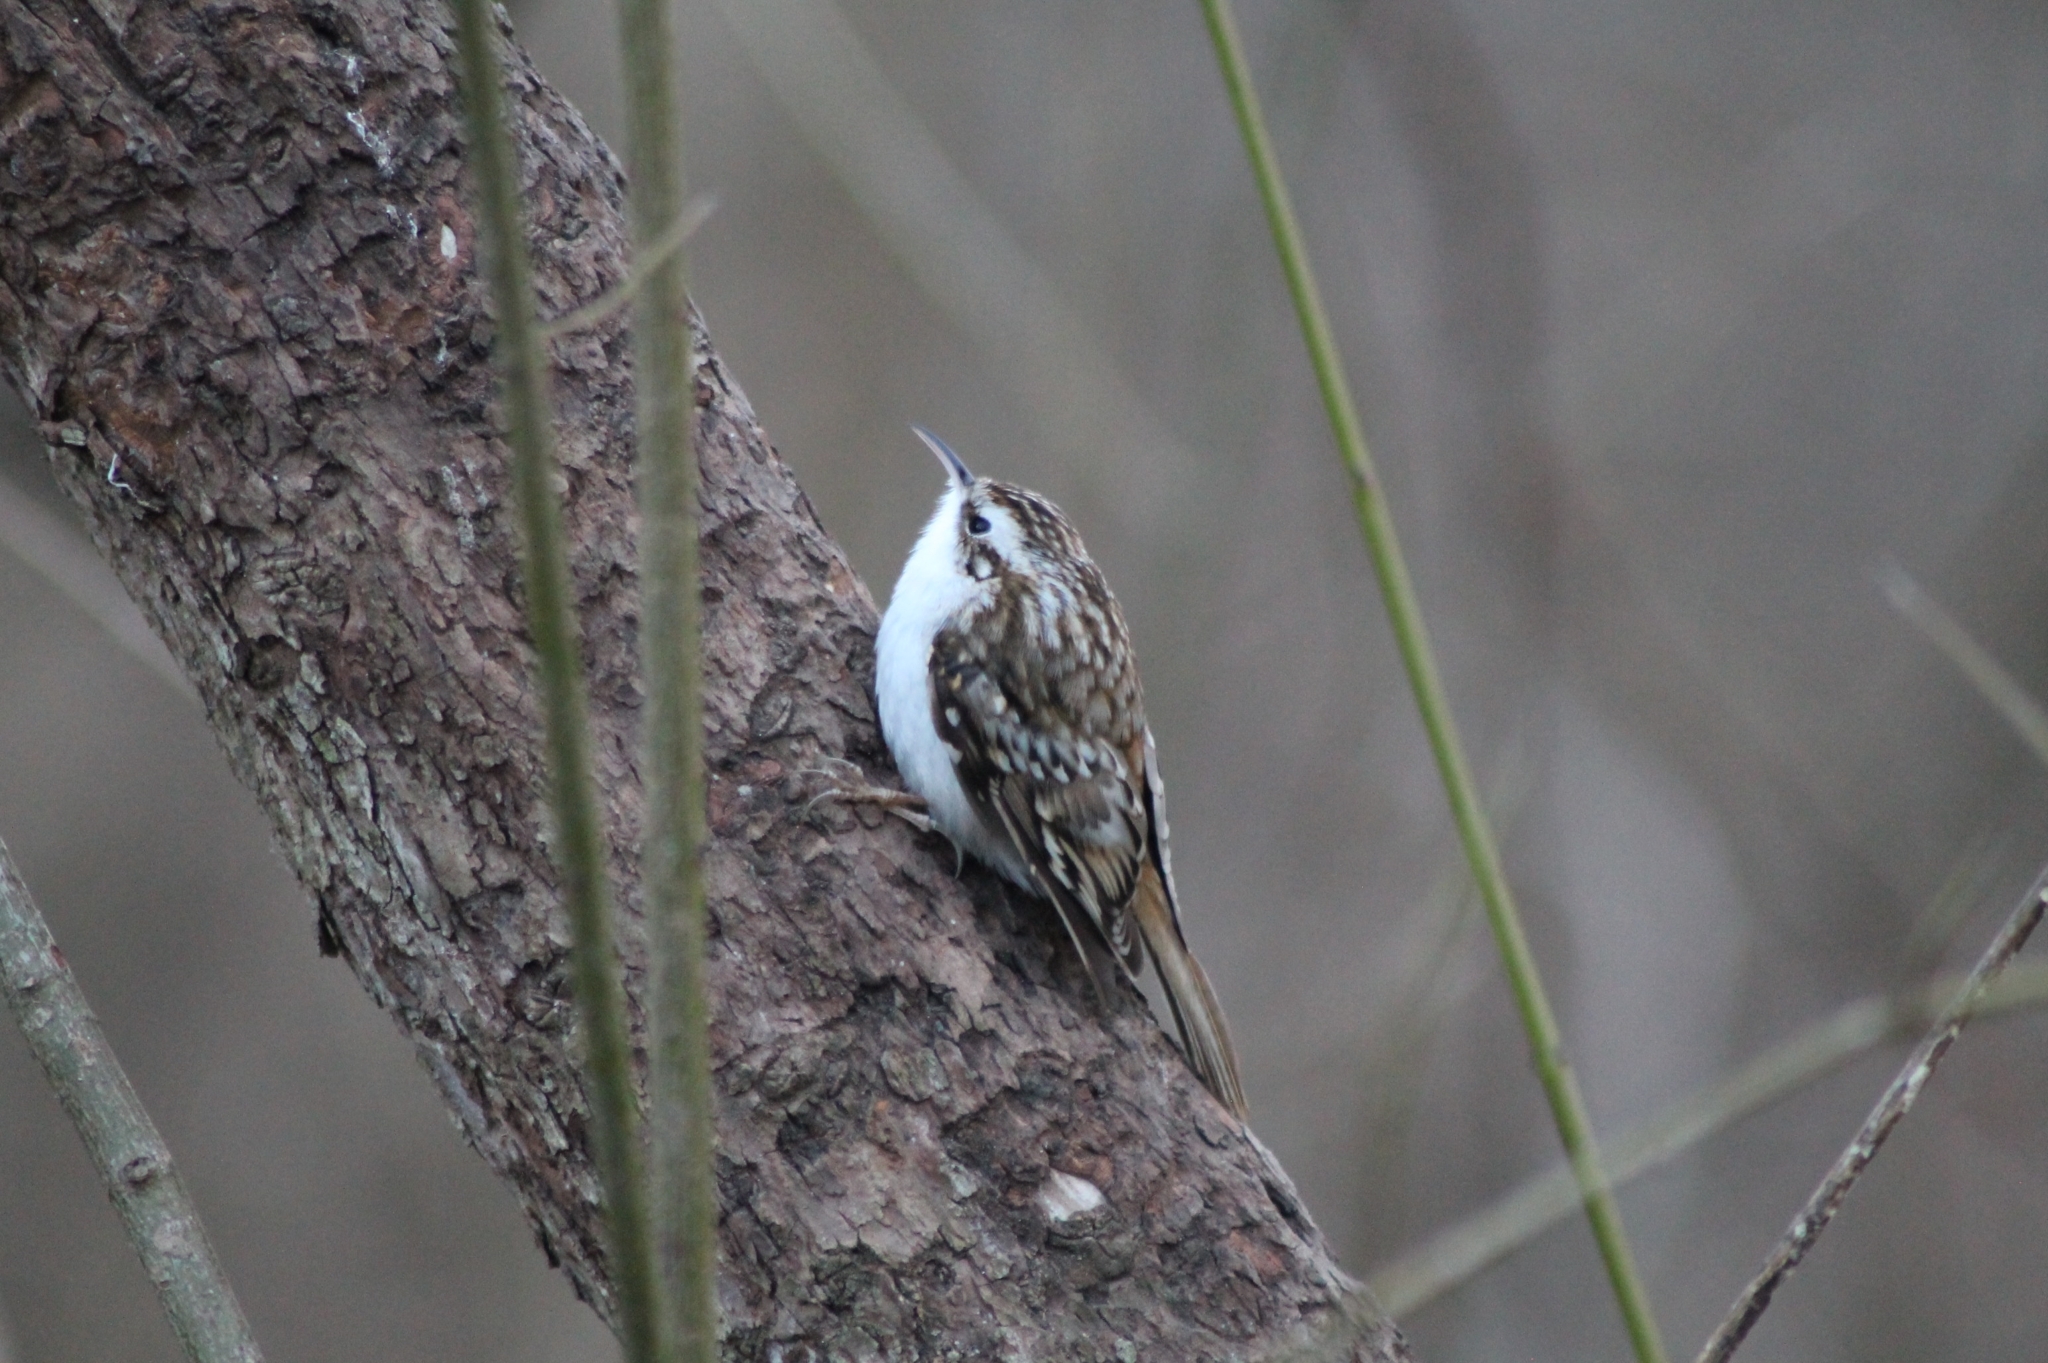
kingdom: Animalia
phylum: Chordata
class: Aves
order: Passeriformes
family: Certhiidae
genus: Certhia
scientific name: Certhia familiaris
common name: Eurasian treecreeper
